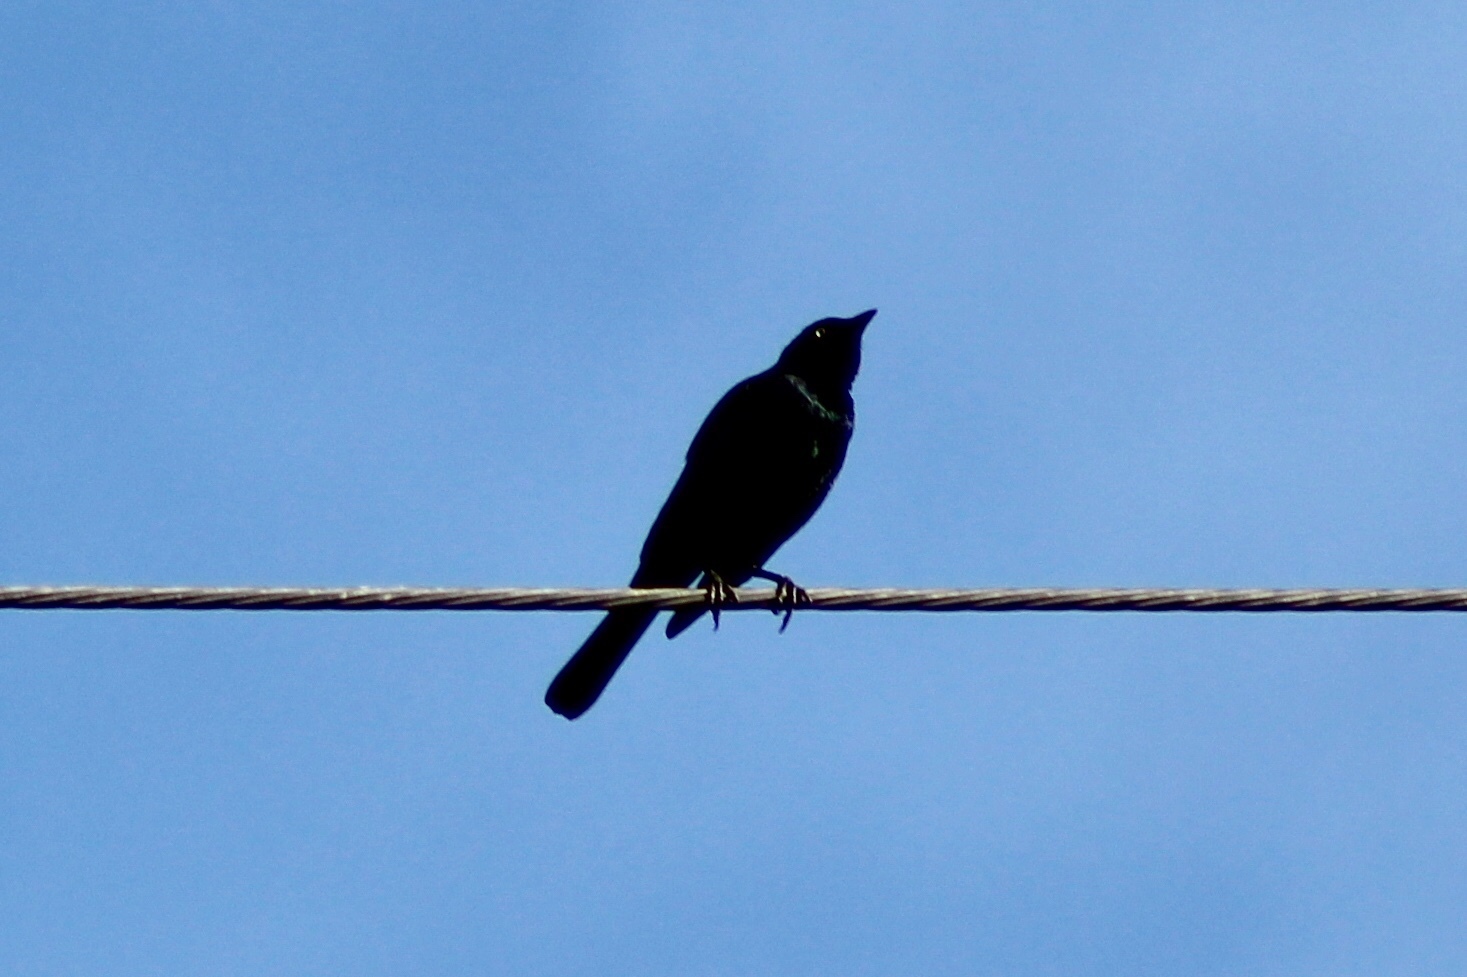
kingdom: Animalia
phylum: Chordata
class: Aves
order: Passeriformes
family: Icteridae
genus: Euphagus
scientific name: Euphagus cyanocephalus
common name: Brewer's blackbird
